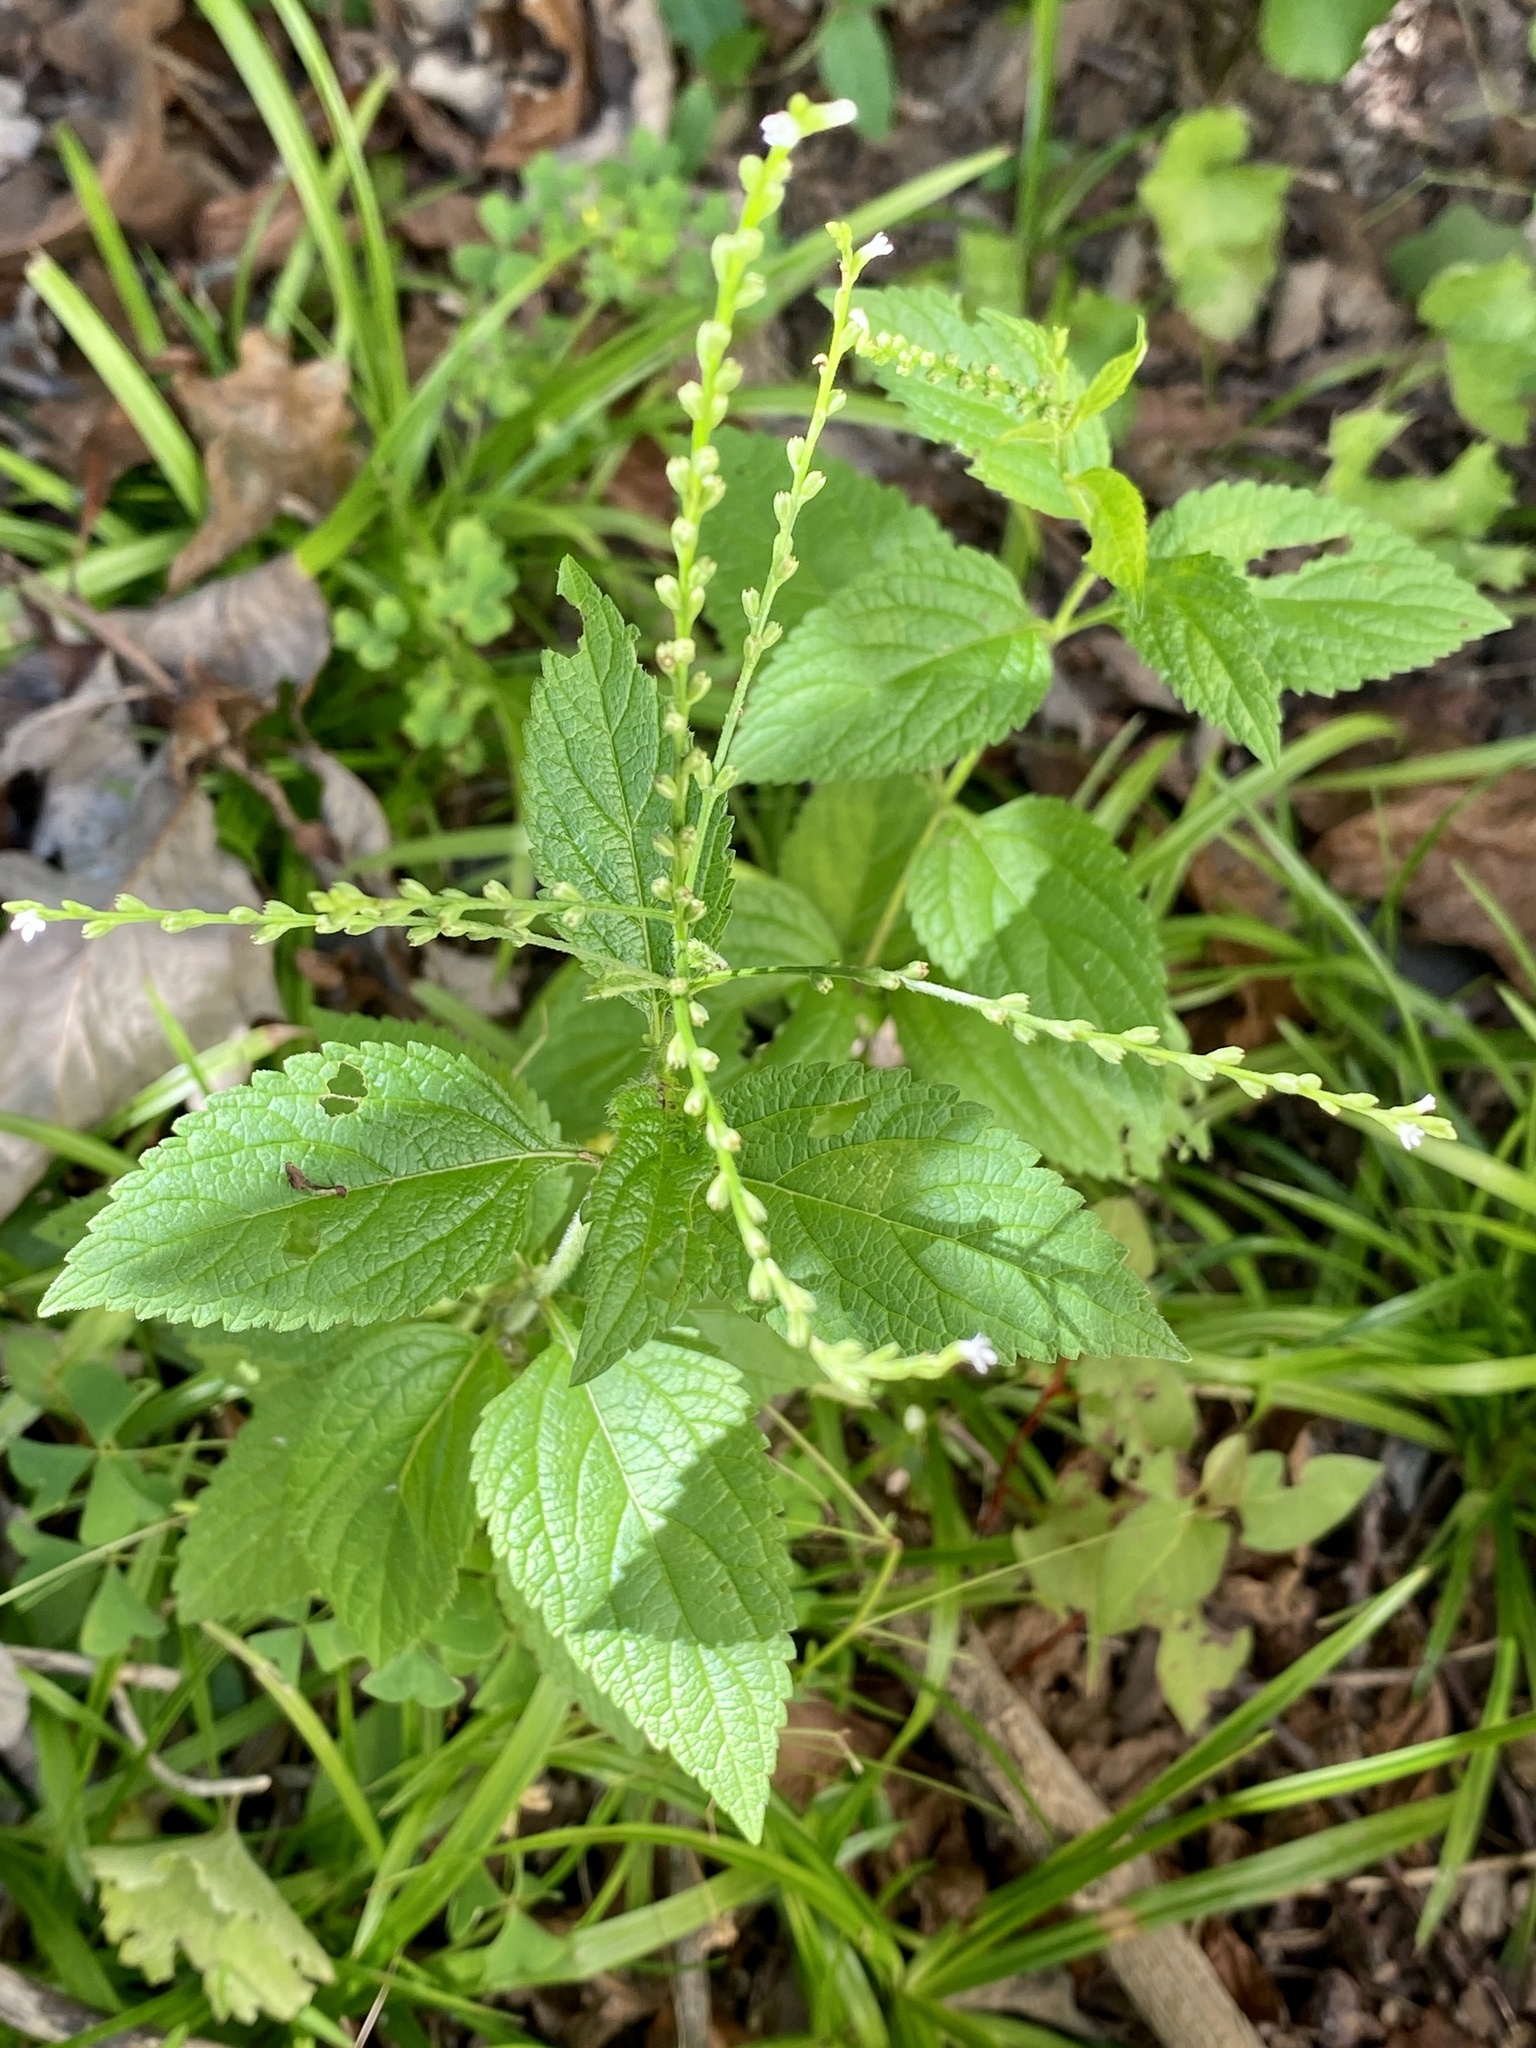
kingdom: Plantae
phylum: Tracheophyta
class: Magnoliopsida
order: Lamiales
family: Verbenaceae
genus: Verbena
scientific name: Verbena urticifolia
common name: Nettle-leaved vervain
